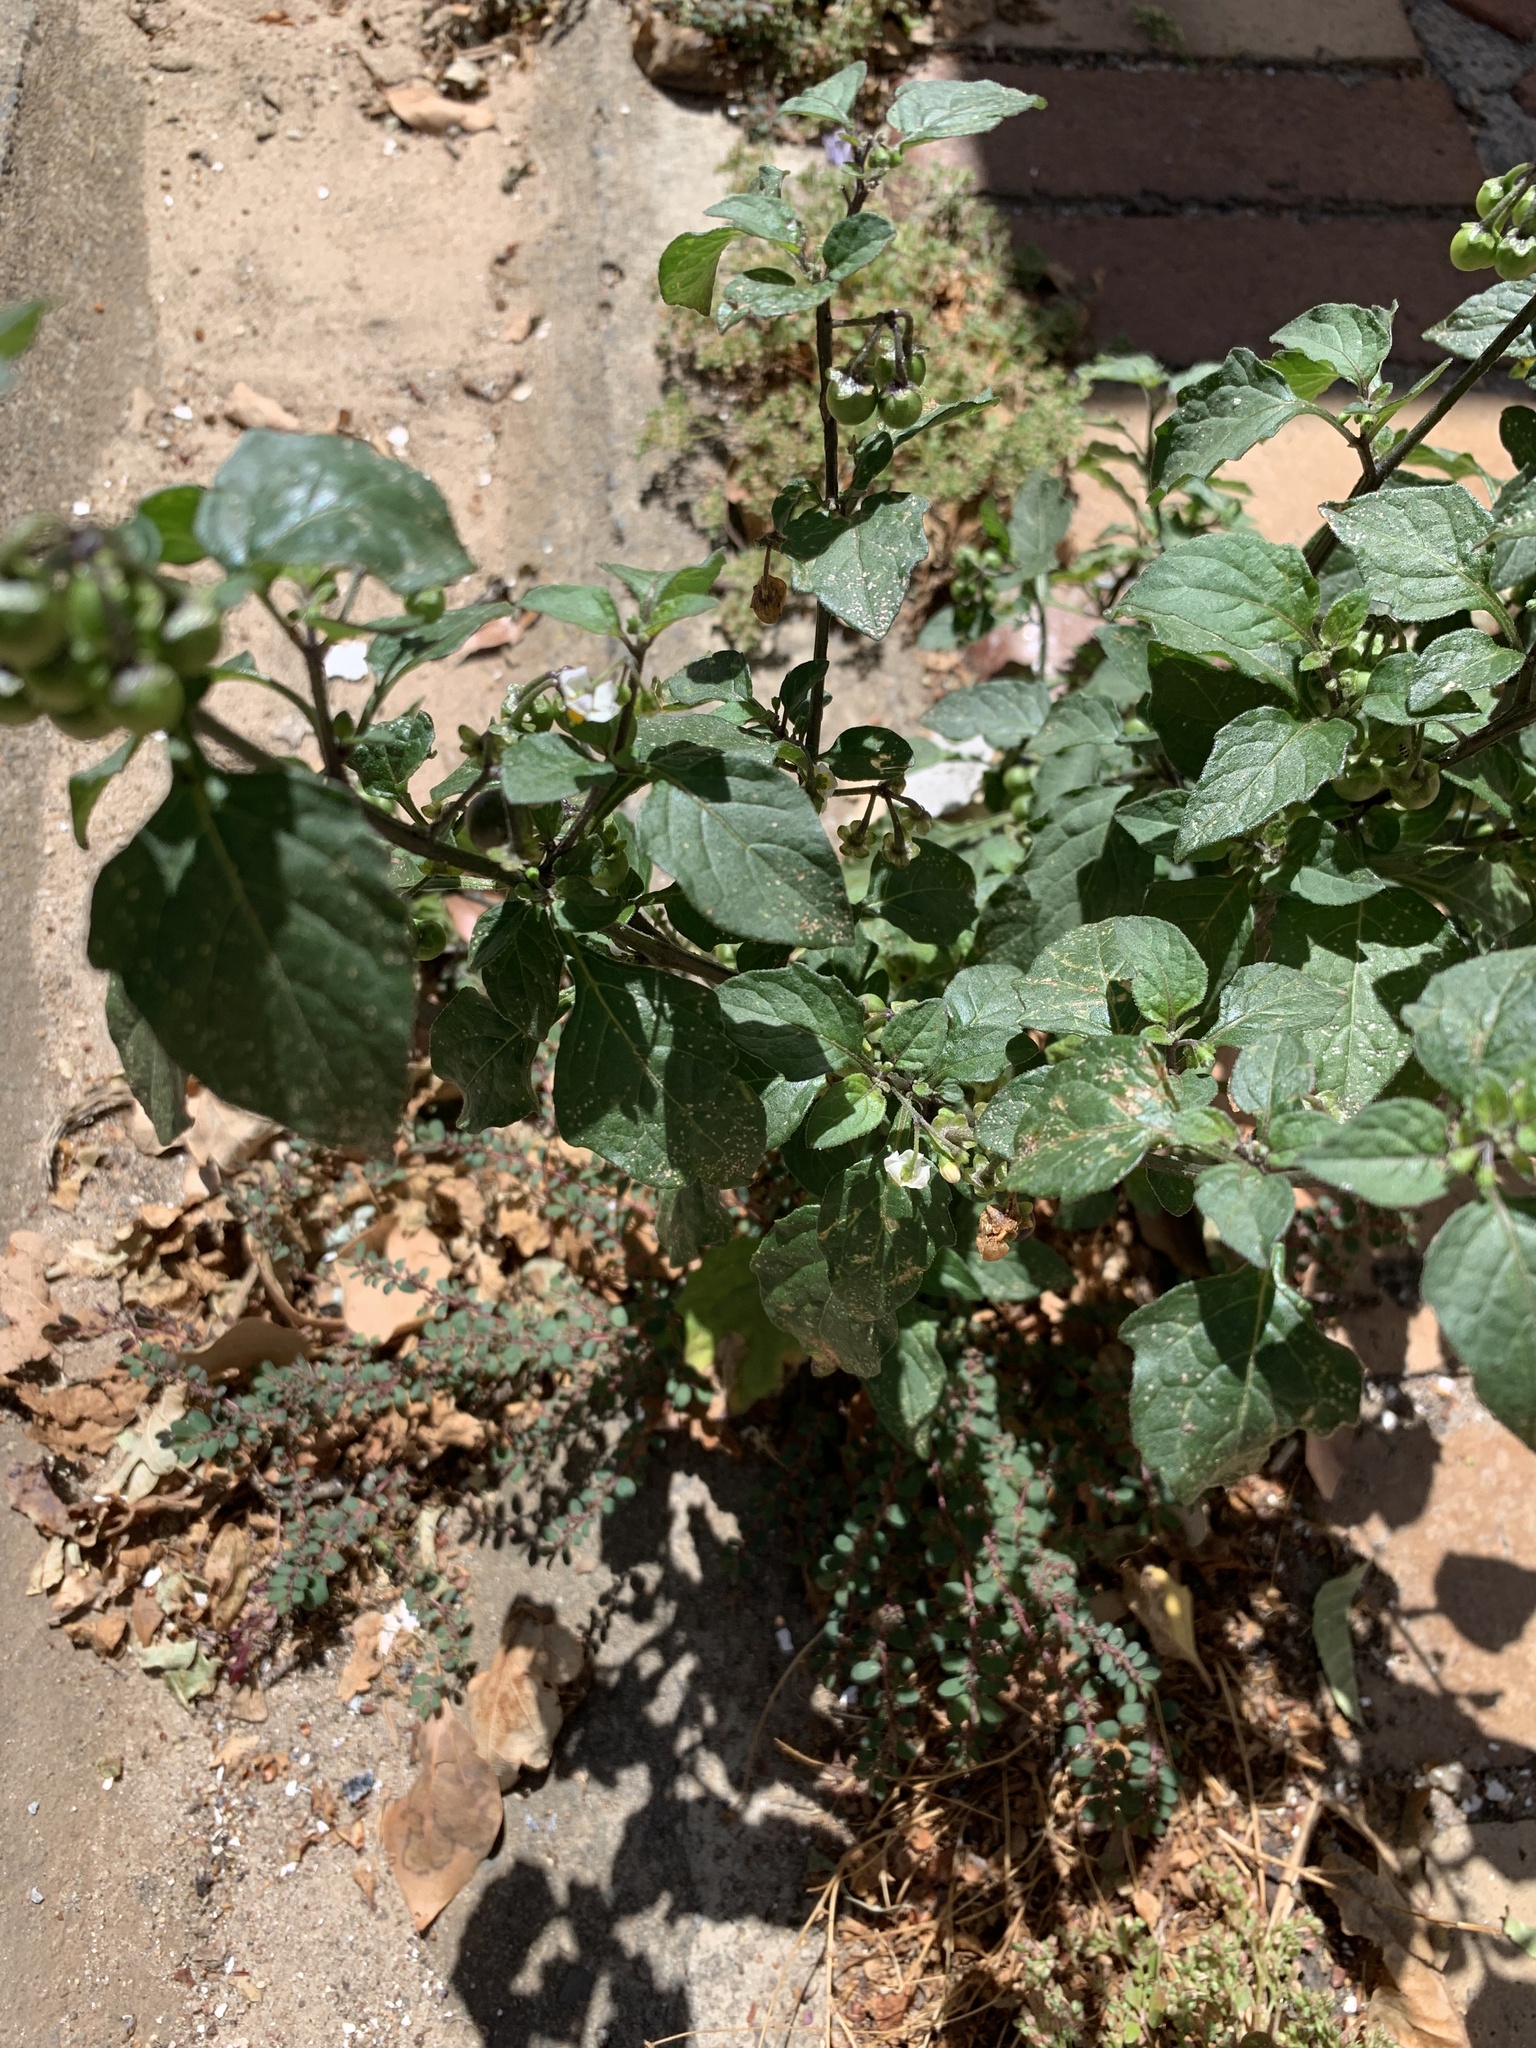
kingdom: Plantae
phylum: Tracheophyta
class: Magnoliopsida
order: Solanales
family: Solanaceae
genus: Solanum
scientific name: Solanum nigrum
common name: Black nightshade
